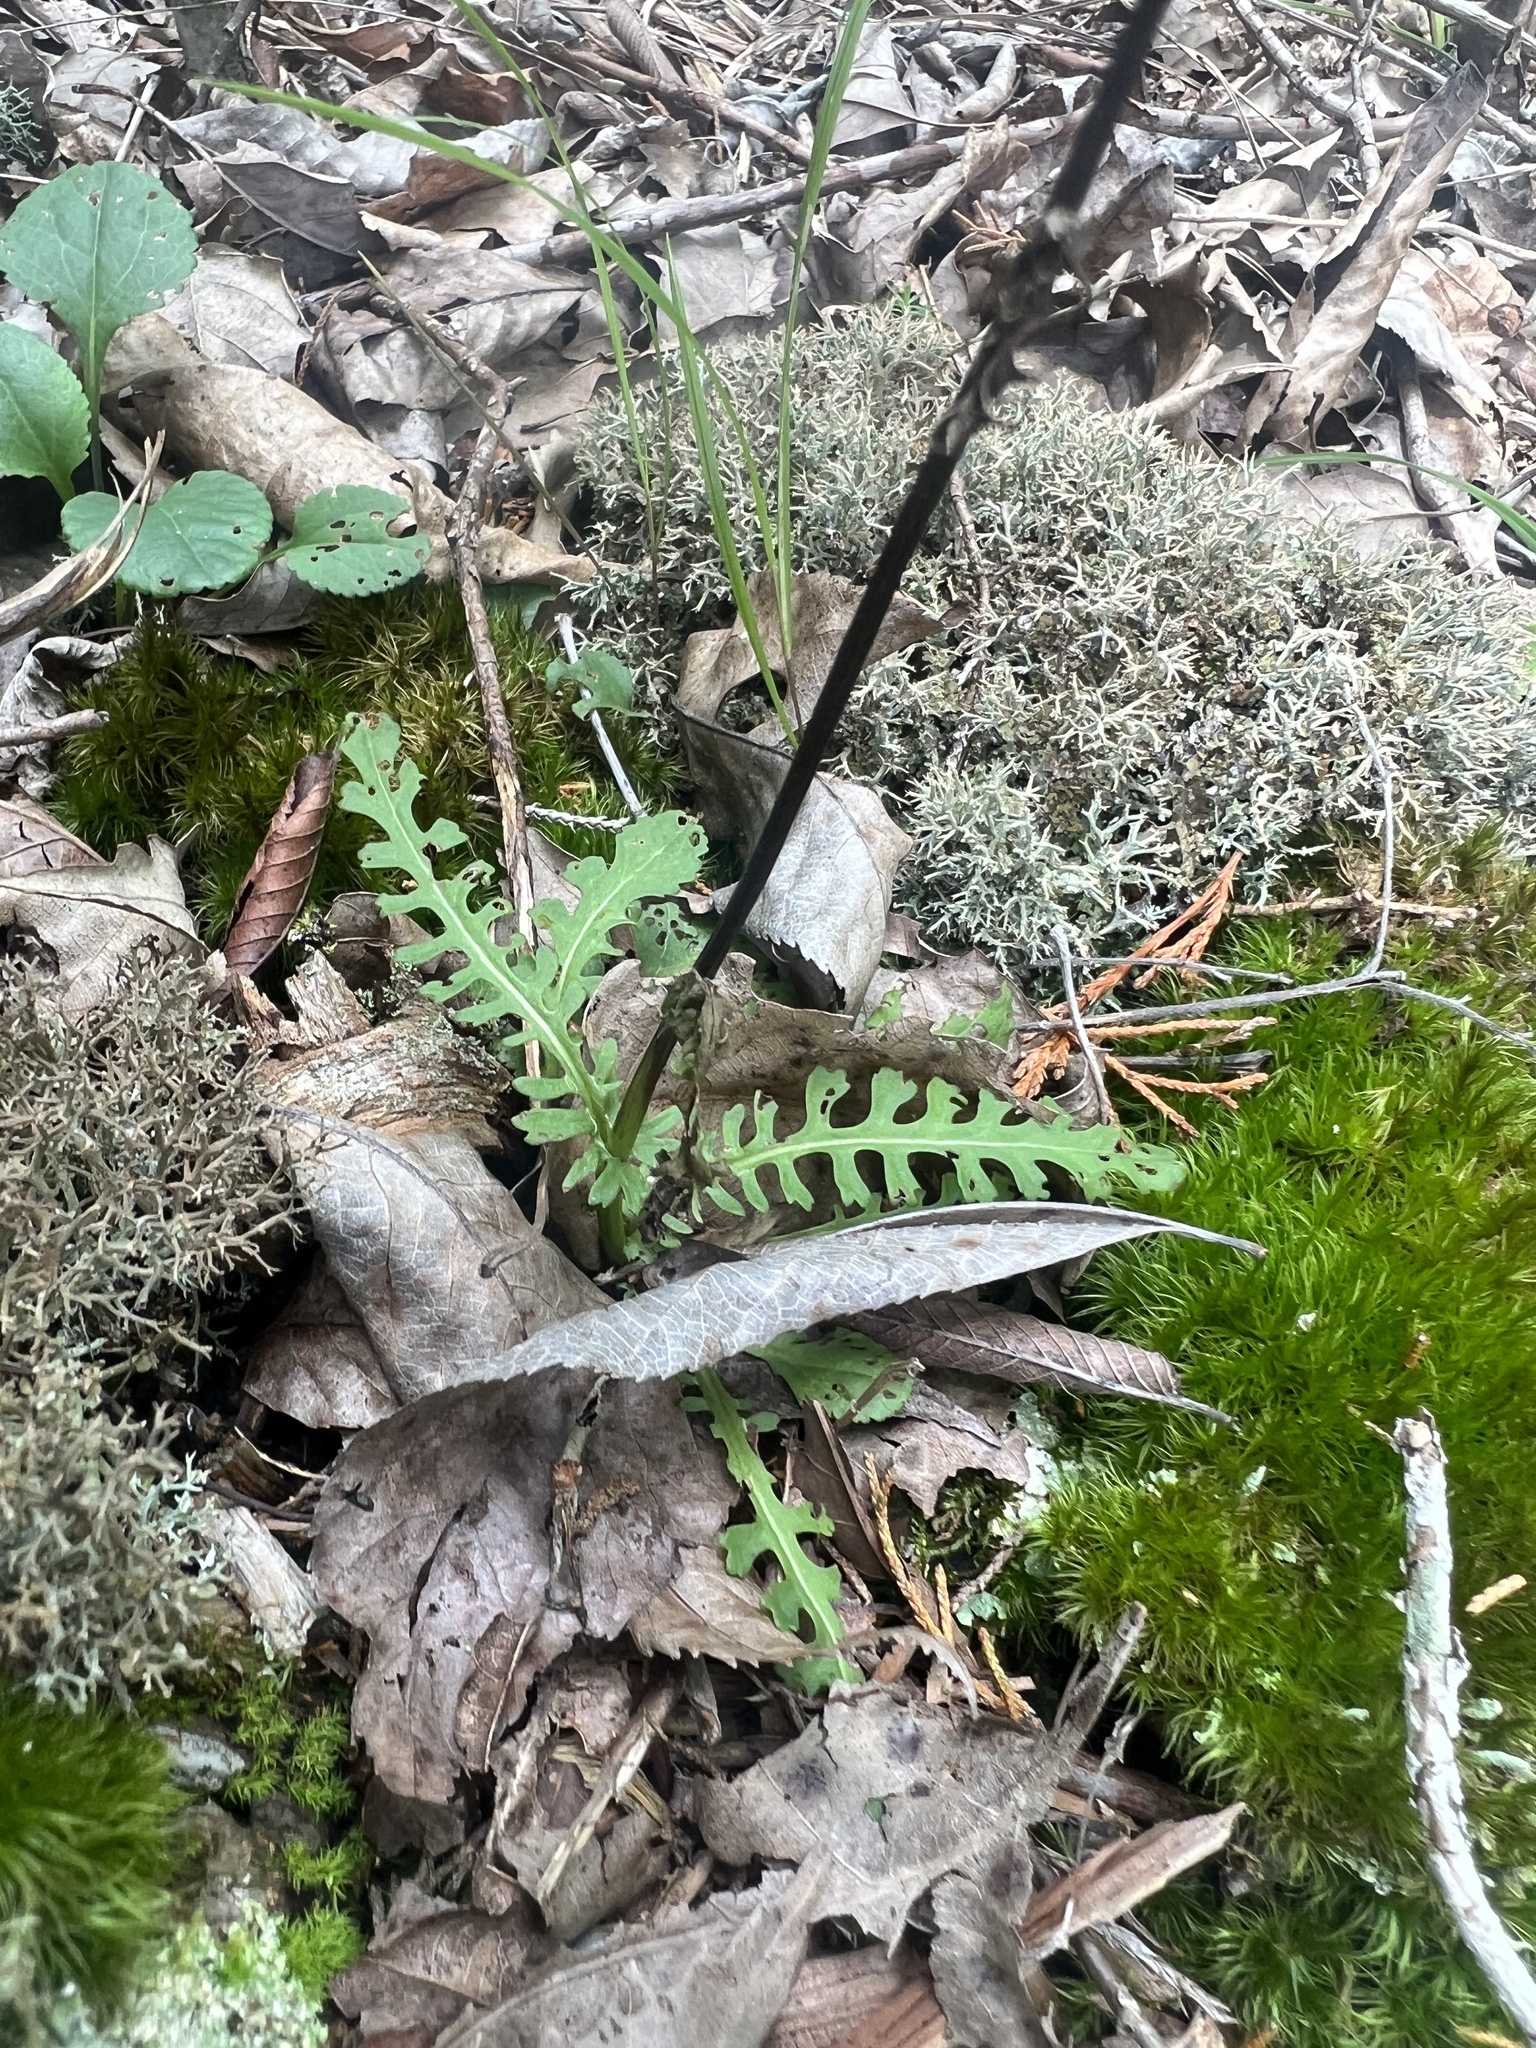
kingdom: Plantae
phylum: Tracheophyta
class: Magnoliopsida
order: Asterales
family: Asteraceae
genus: Packera
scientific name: Packera anonyma
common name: Small ragwort
